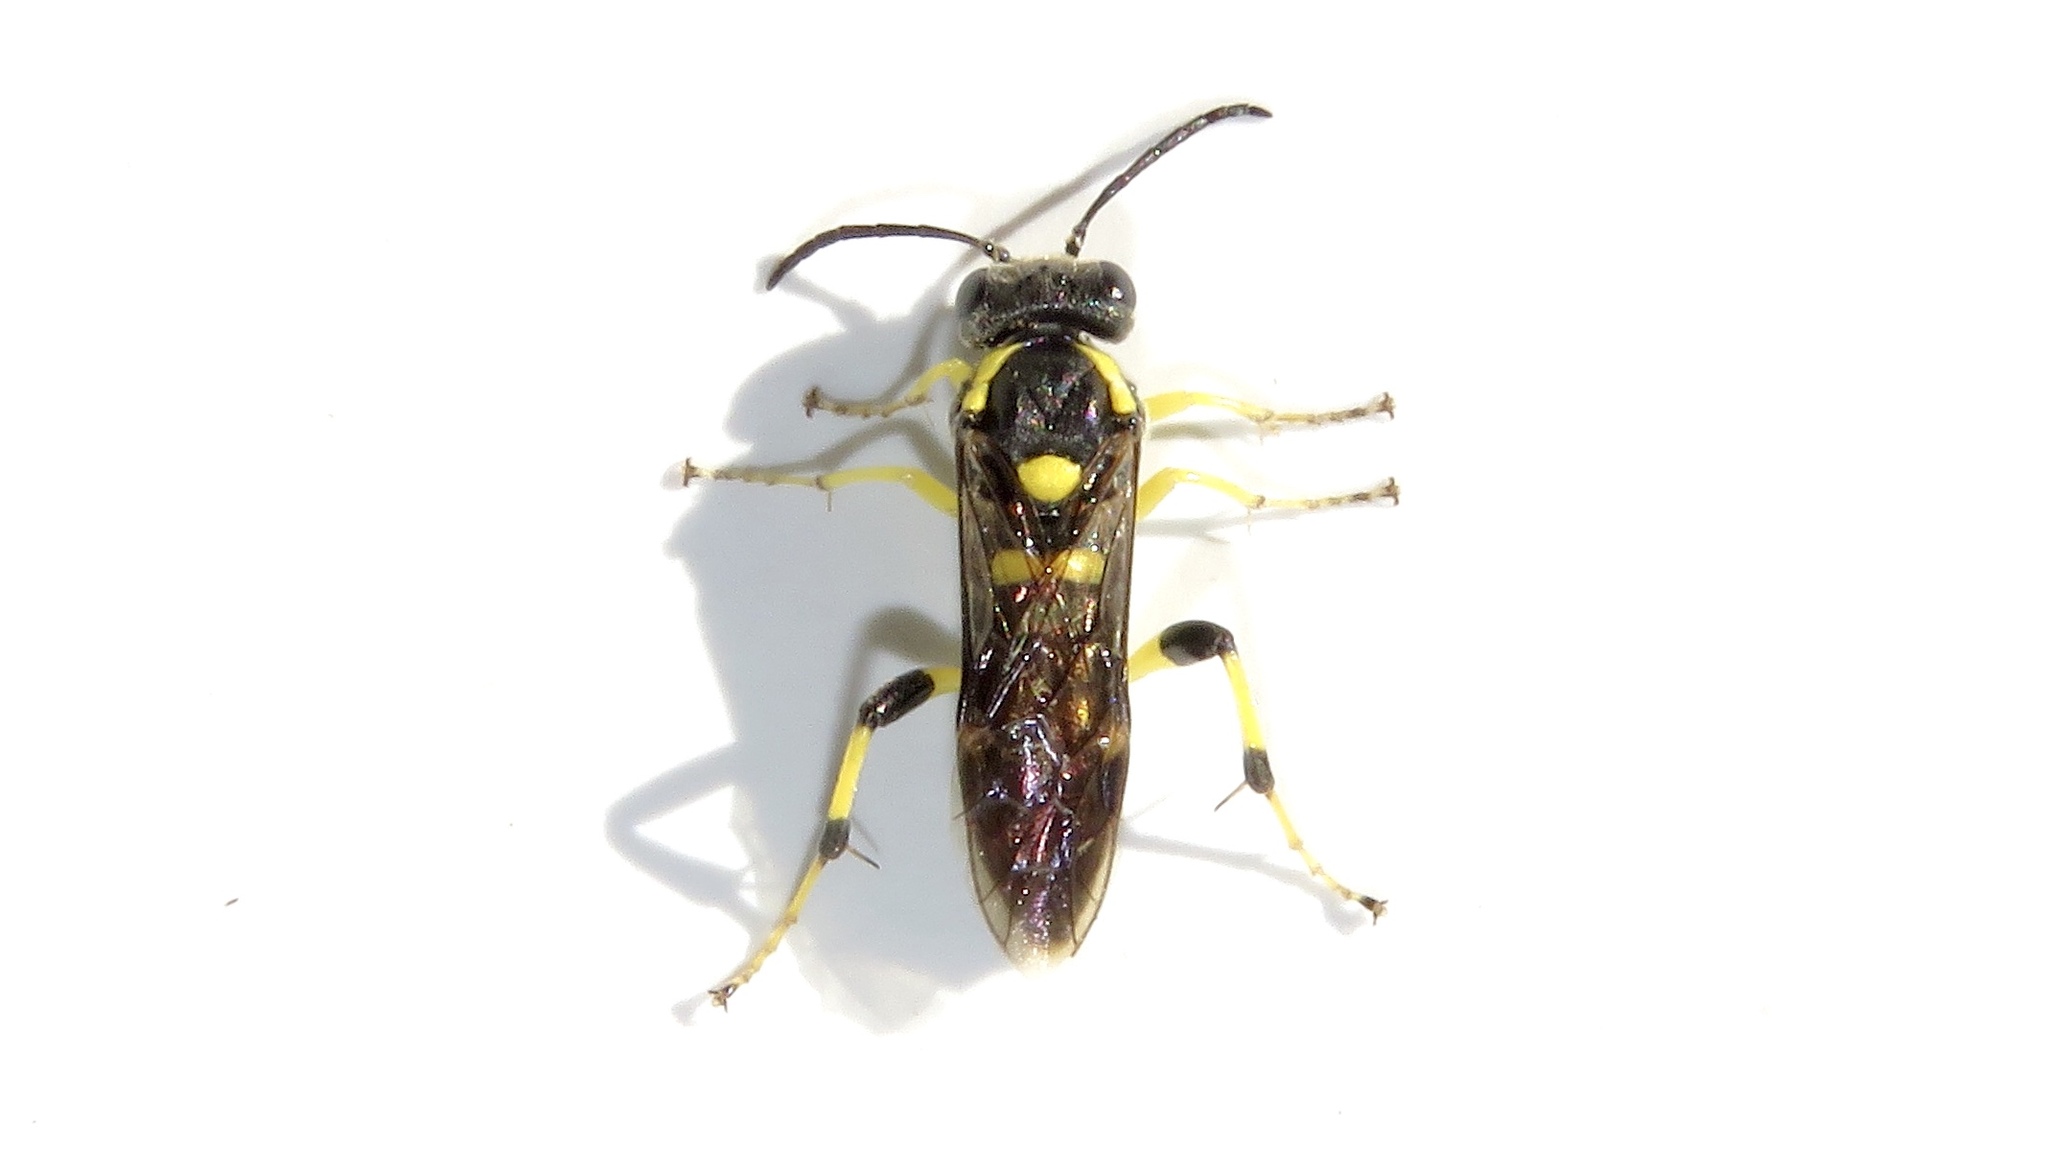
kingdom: Animalia
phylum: Arthropoda
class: Insecta
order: Hymenoptera
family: Tenthredinidae
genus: Macrophya
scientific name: Macrophya intermedia
